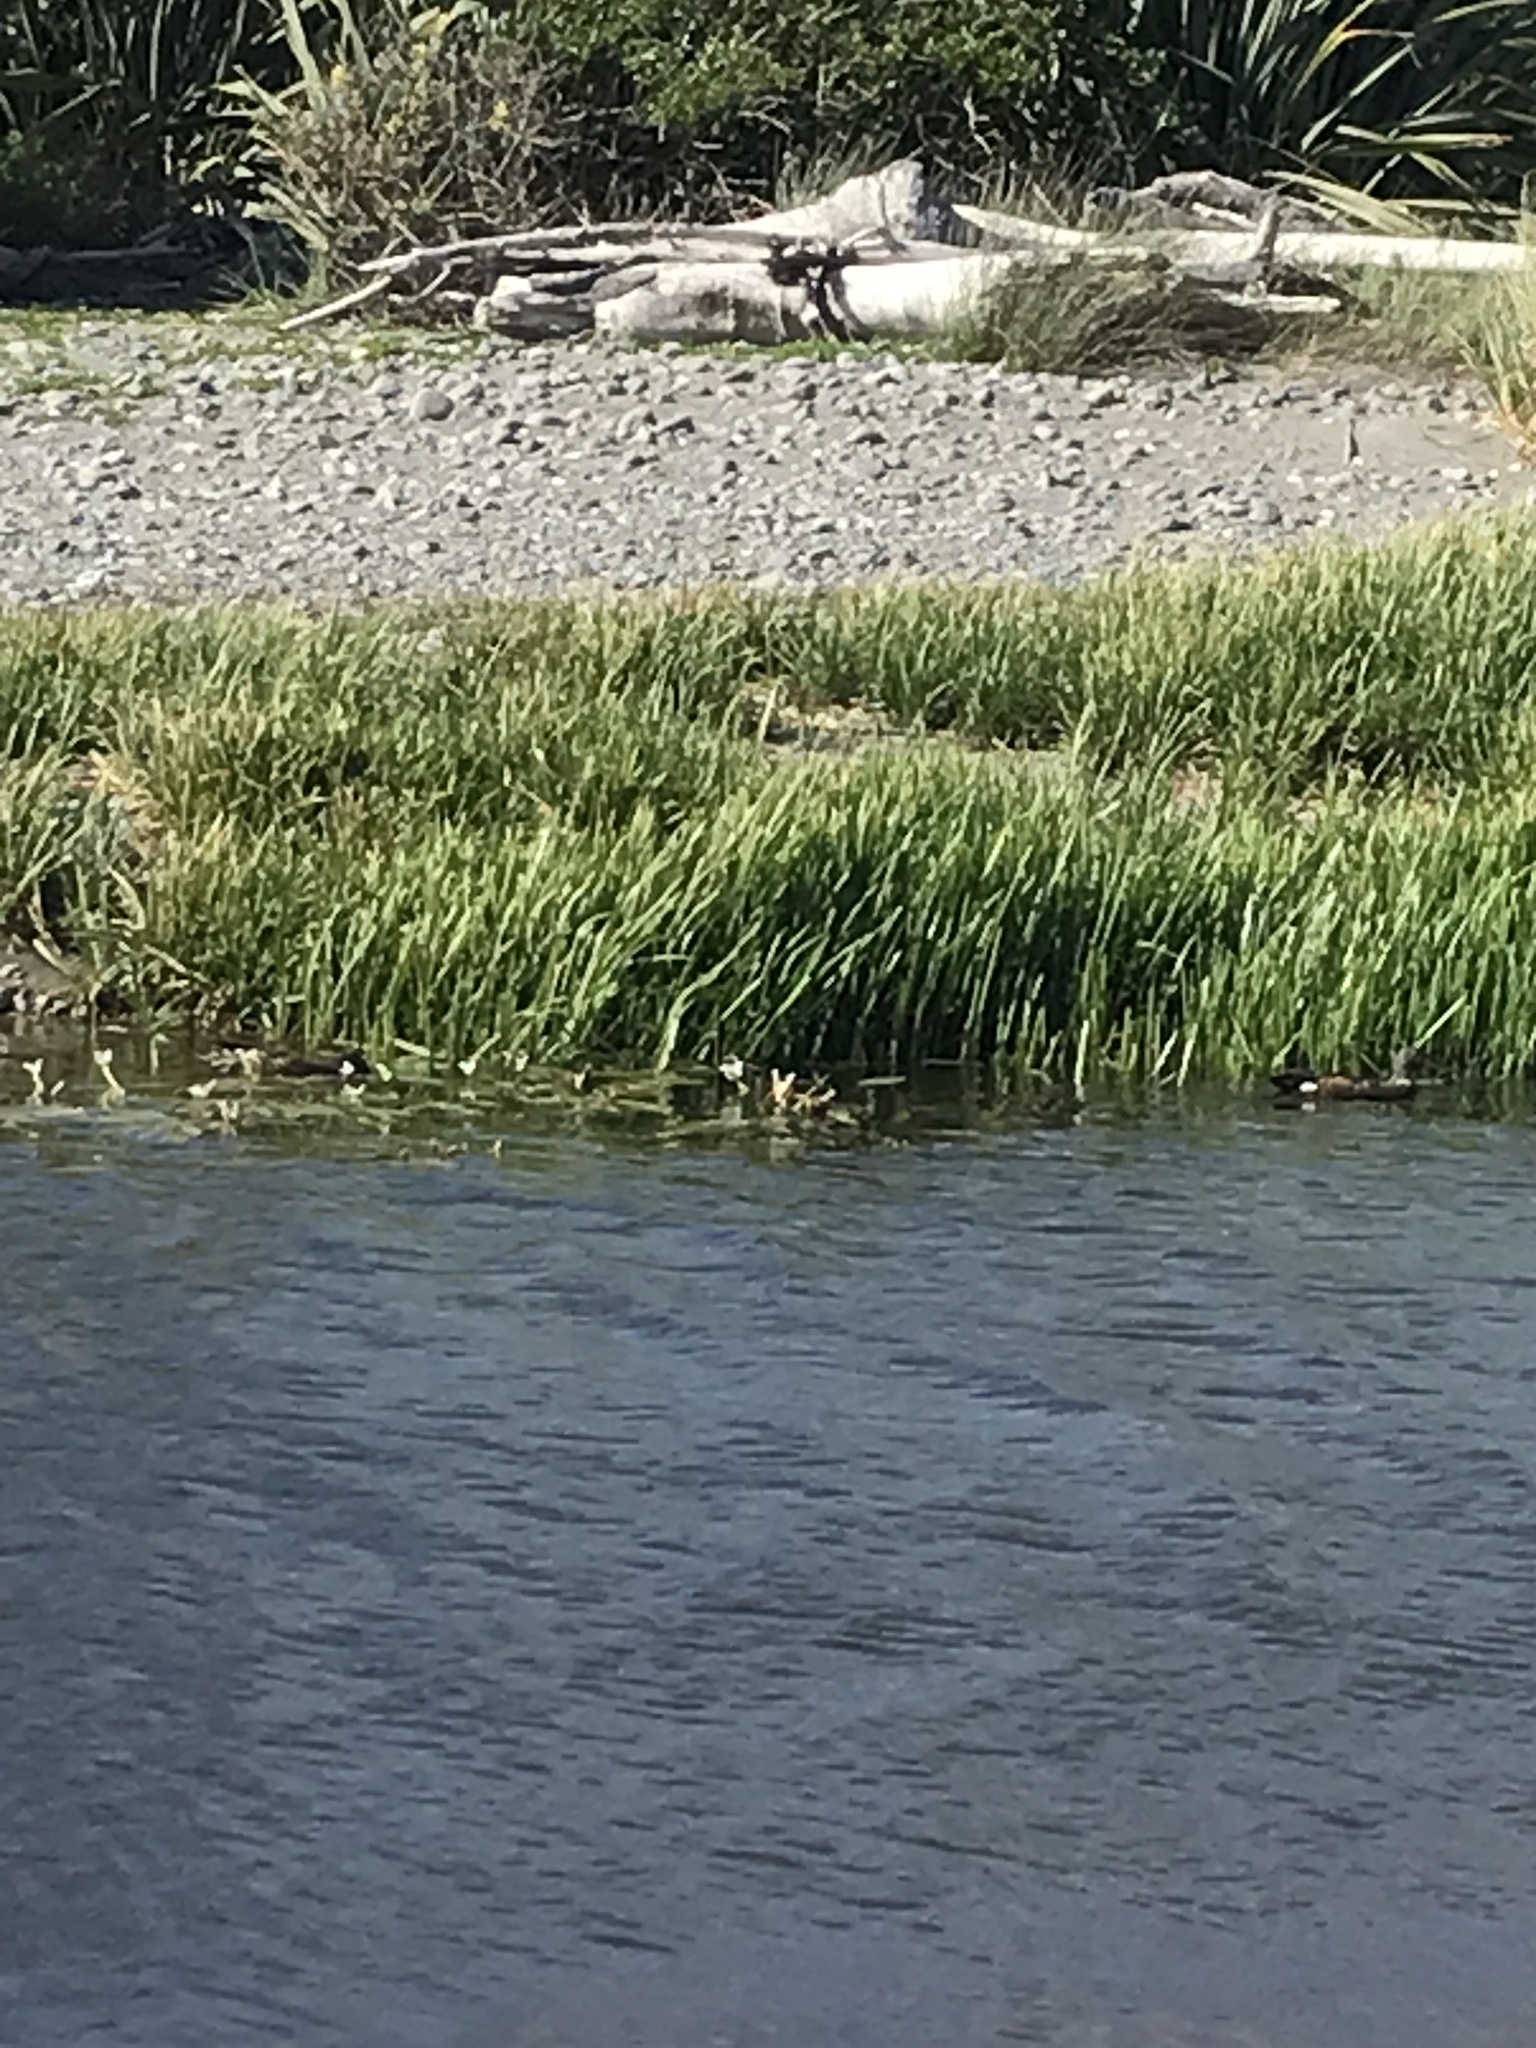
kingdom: Animalia
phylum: Chordata
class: Aves
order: Anseriformes
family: Anatidae
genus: Spatula
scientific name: Spatula rhynchotis
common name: Australian shoveler
